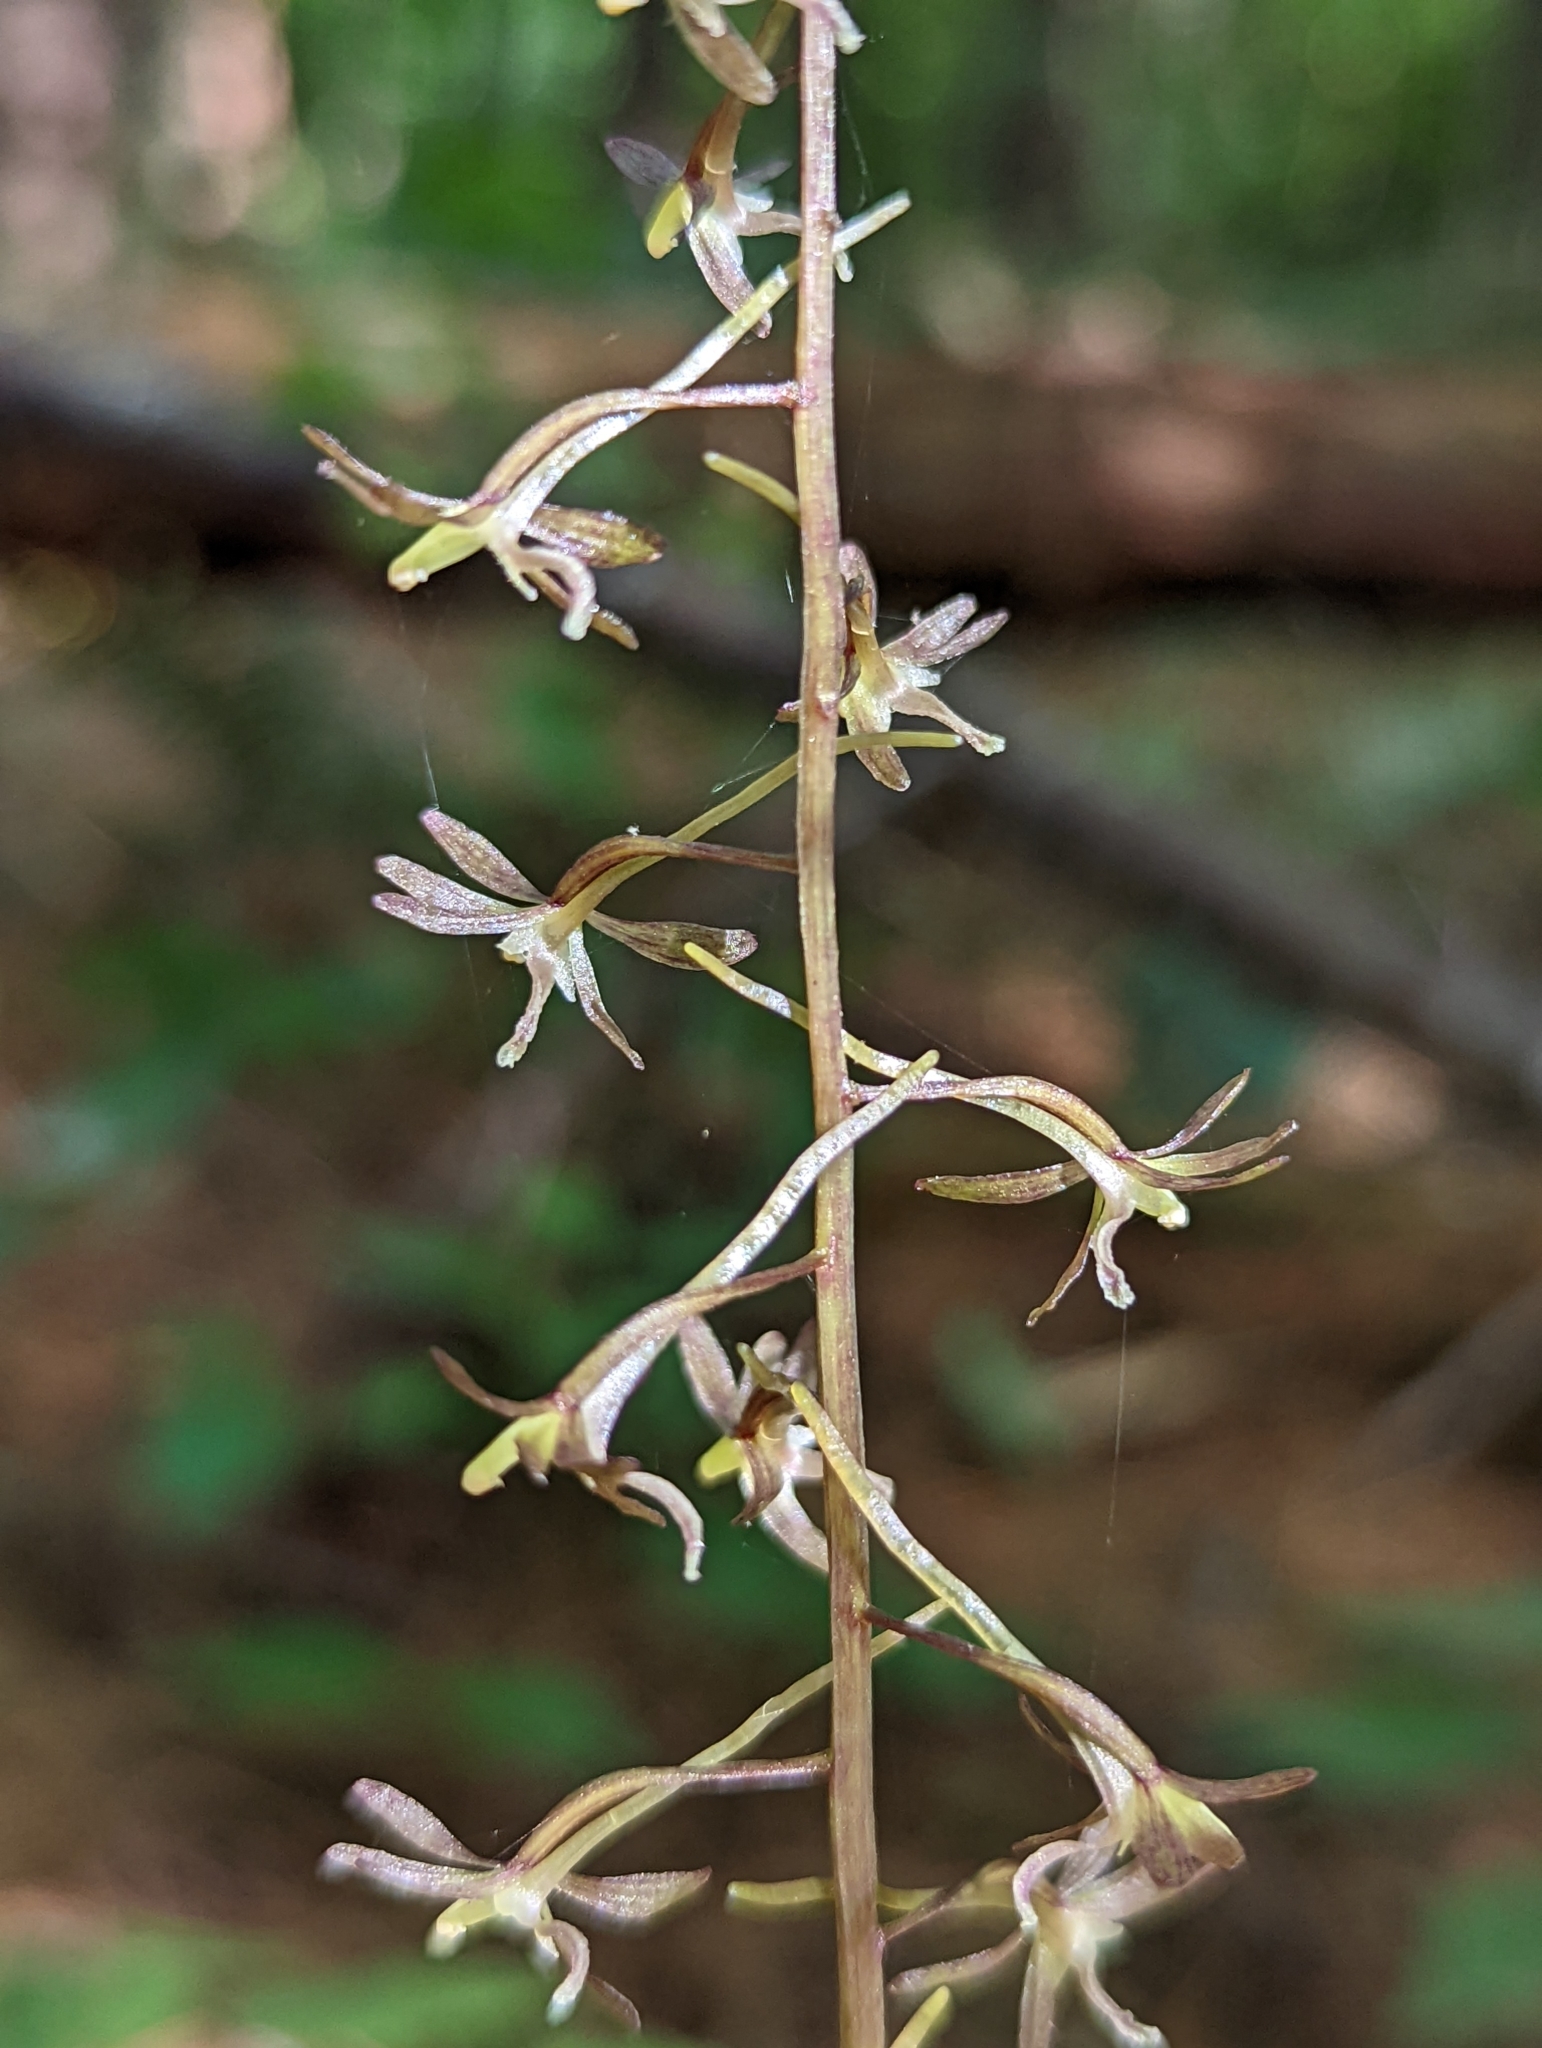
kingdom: Plantae
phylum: Tracheophyta
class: Liliopsida
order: Asparagales
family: Orchidaceae
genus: Tipularia
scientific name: Tipularia discolor
